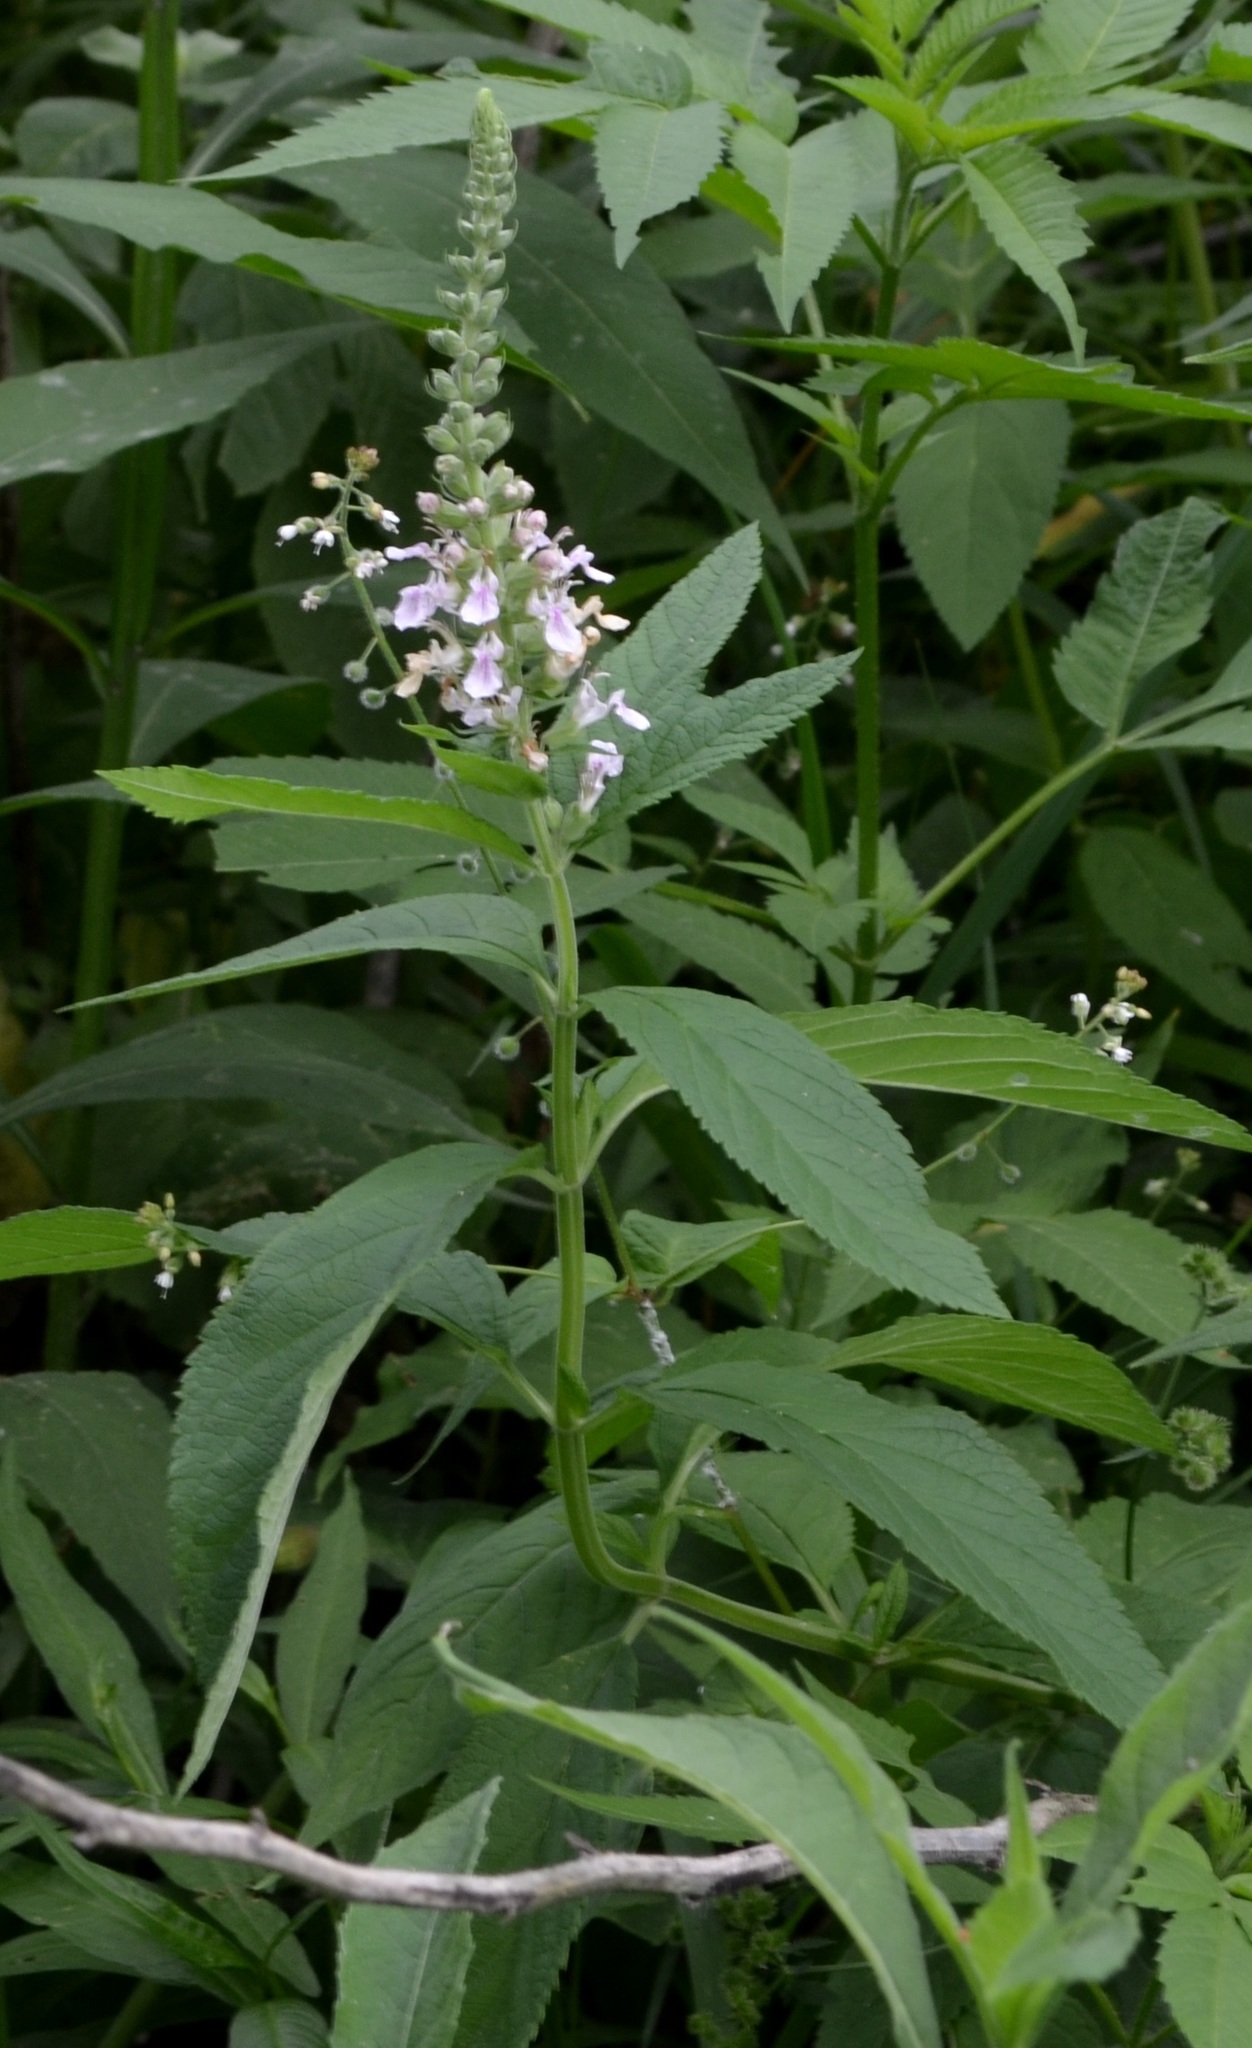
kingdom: Plantae
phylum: Tracheophyta
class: Magnoliopsida
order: Lamiales
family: Lamiaceae
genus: Teucrium
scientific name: Teucrium canadense
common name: American germander
